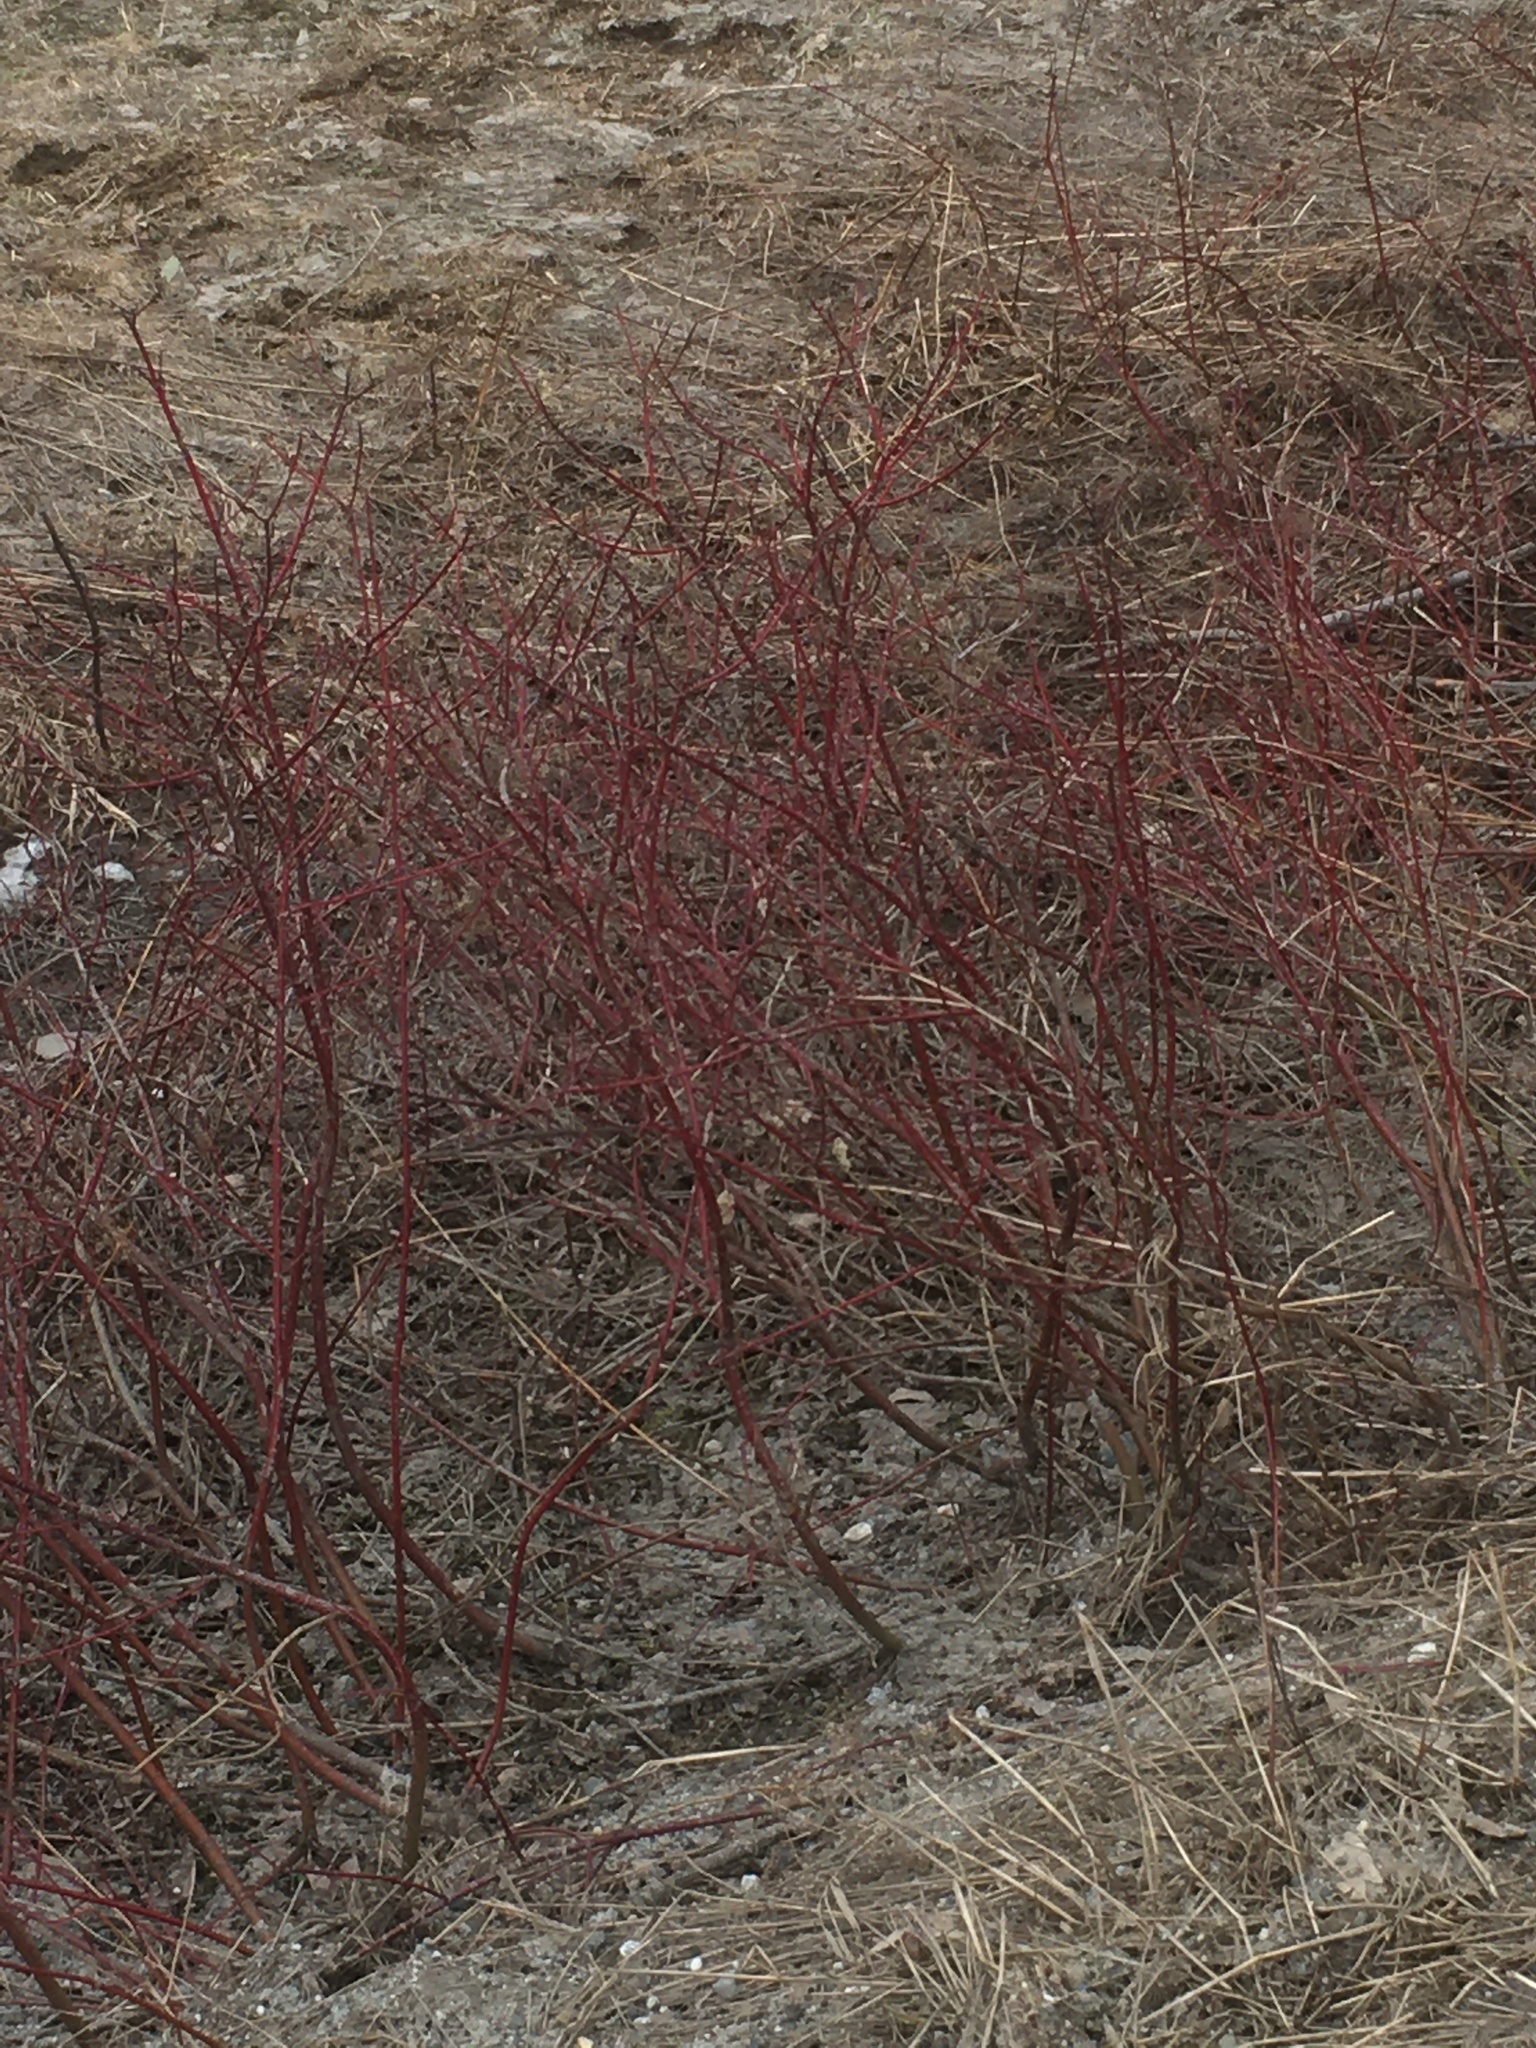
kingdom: Plantae
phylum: Tracheophyta
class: Magnoliopsida
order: Cornales
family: Cornaceae
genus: Cornus
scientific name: Cornus sericea
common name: Red-osier dogwood
